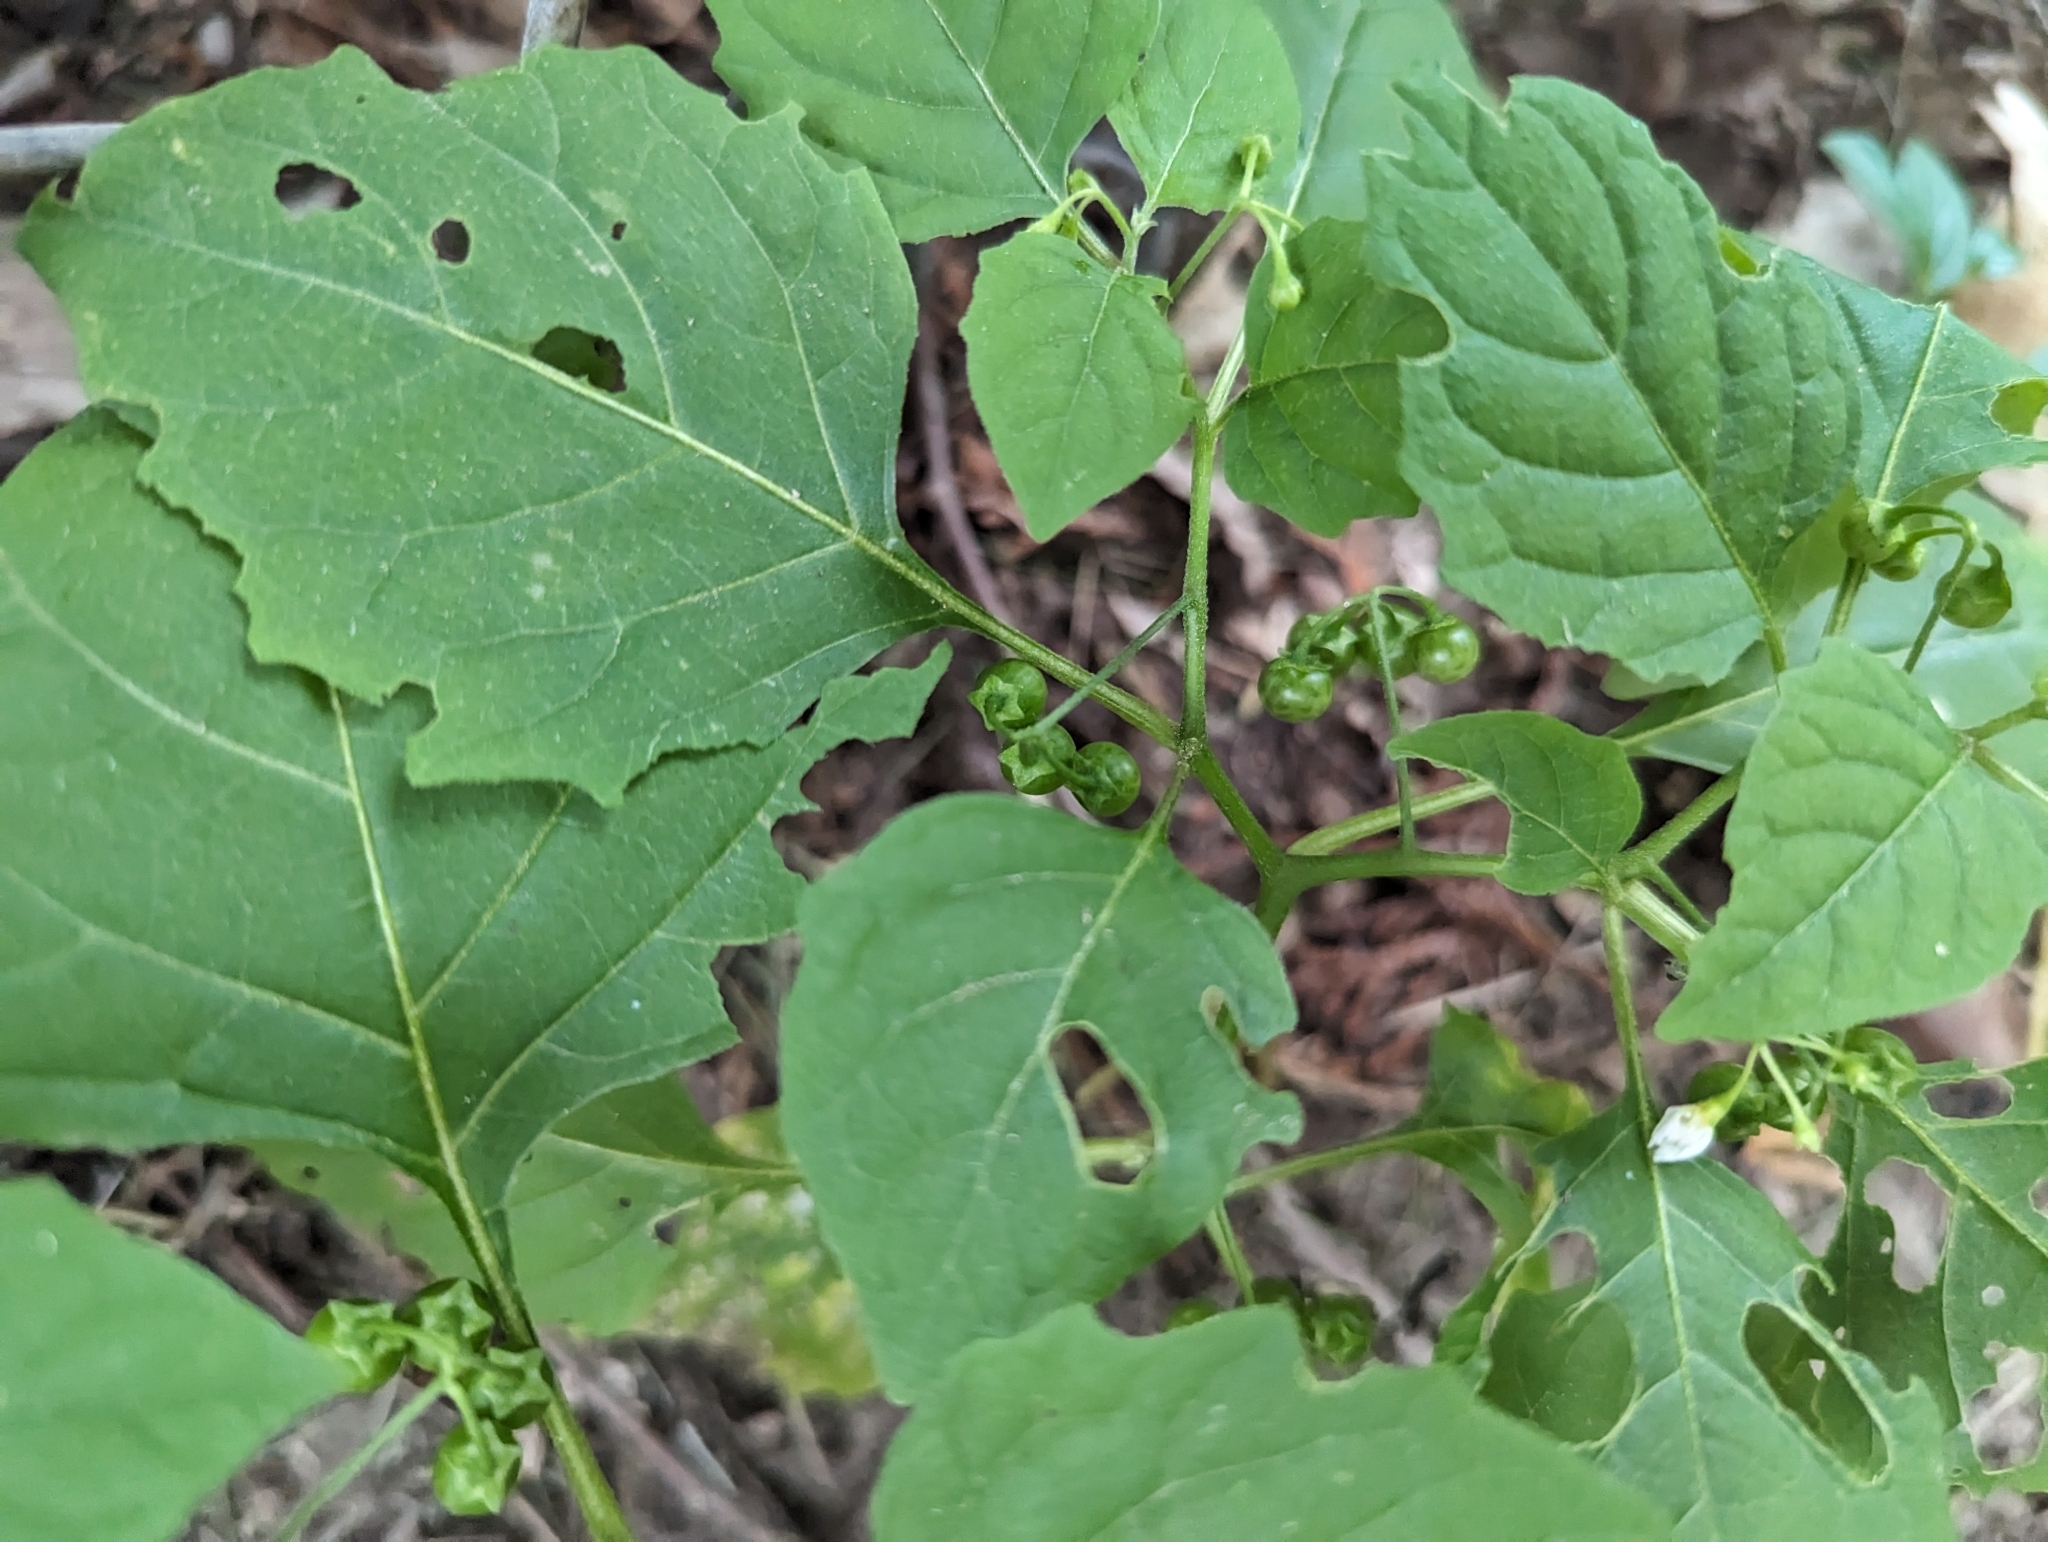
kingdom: Plantae
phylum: Tracheophyta
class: Magnoliopsida
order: Solanales
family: Solanaceae
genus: Solanum
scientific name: Solanum emulans
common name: Eastern black nightshade
